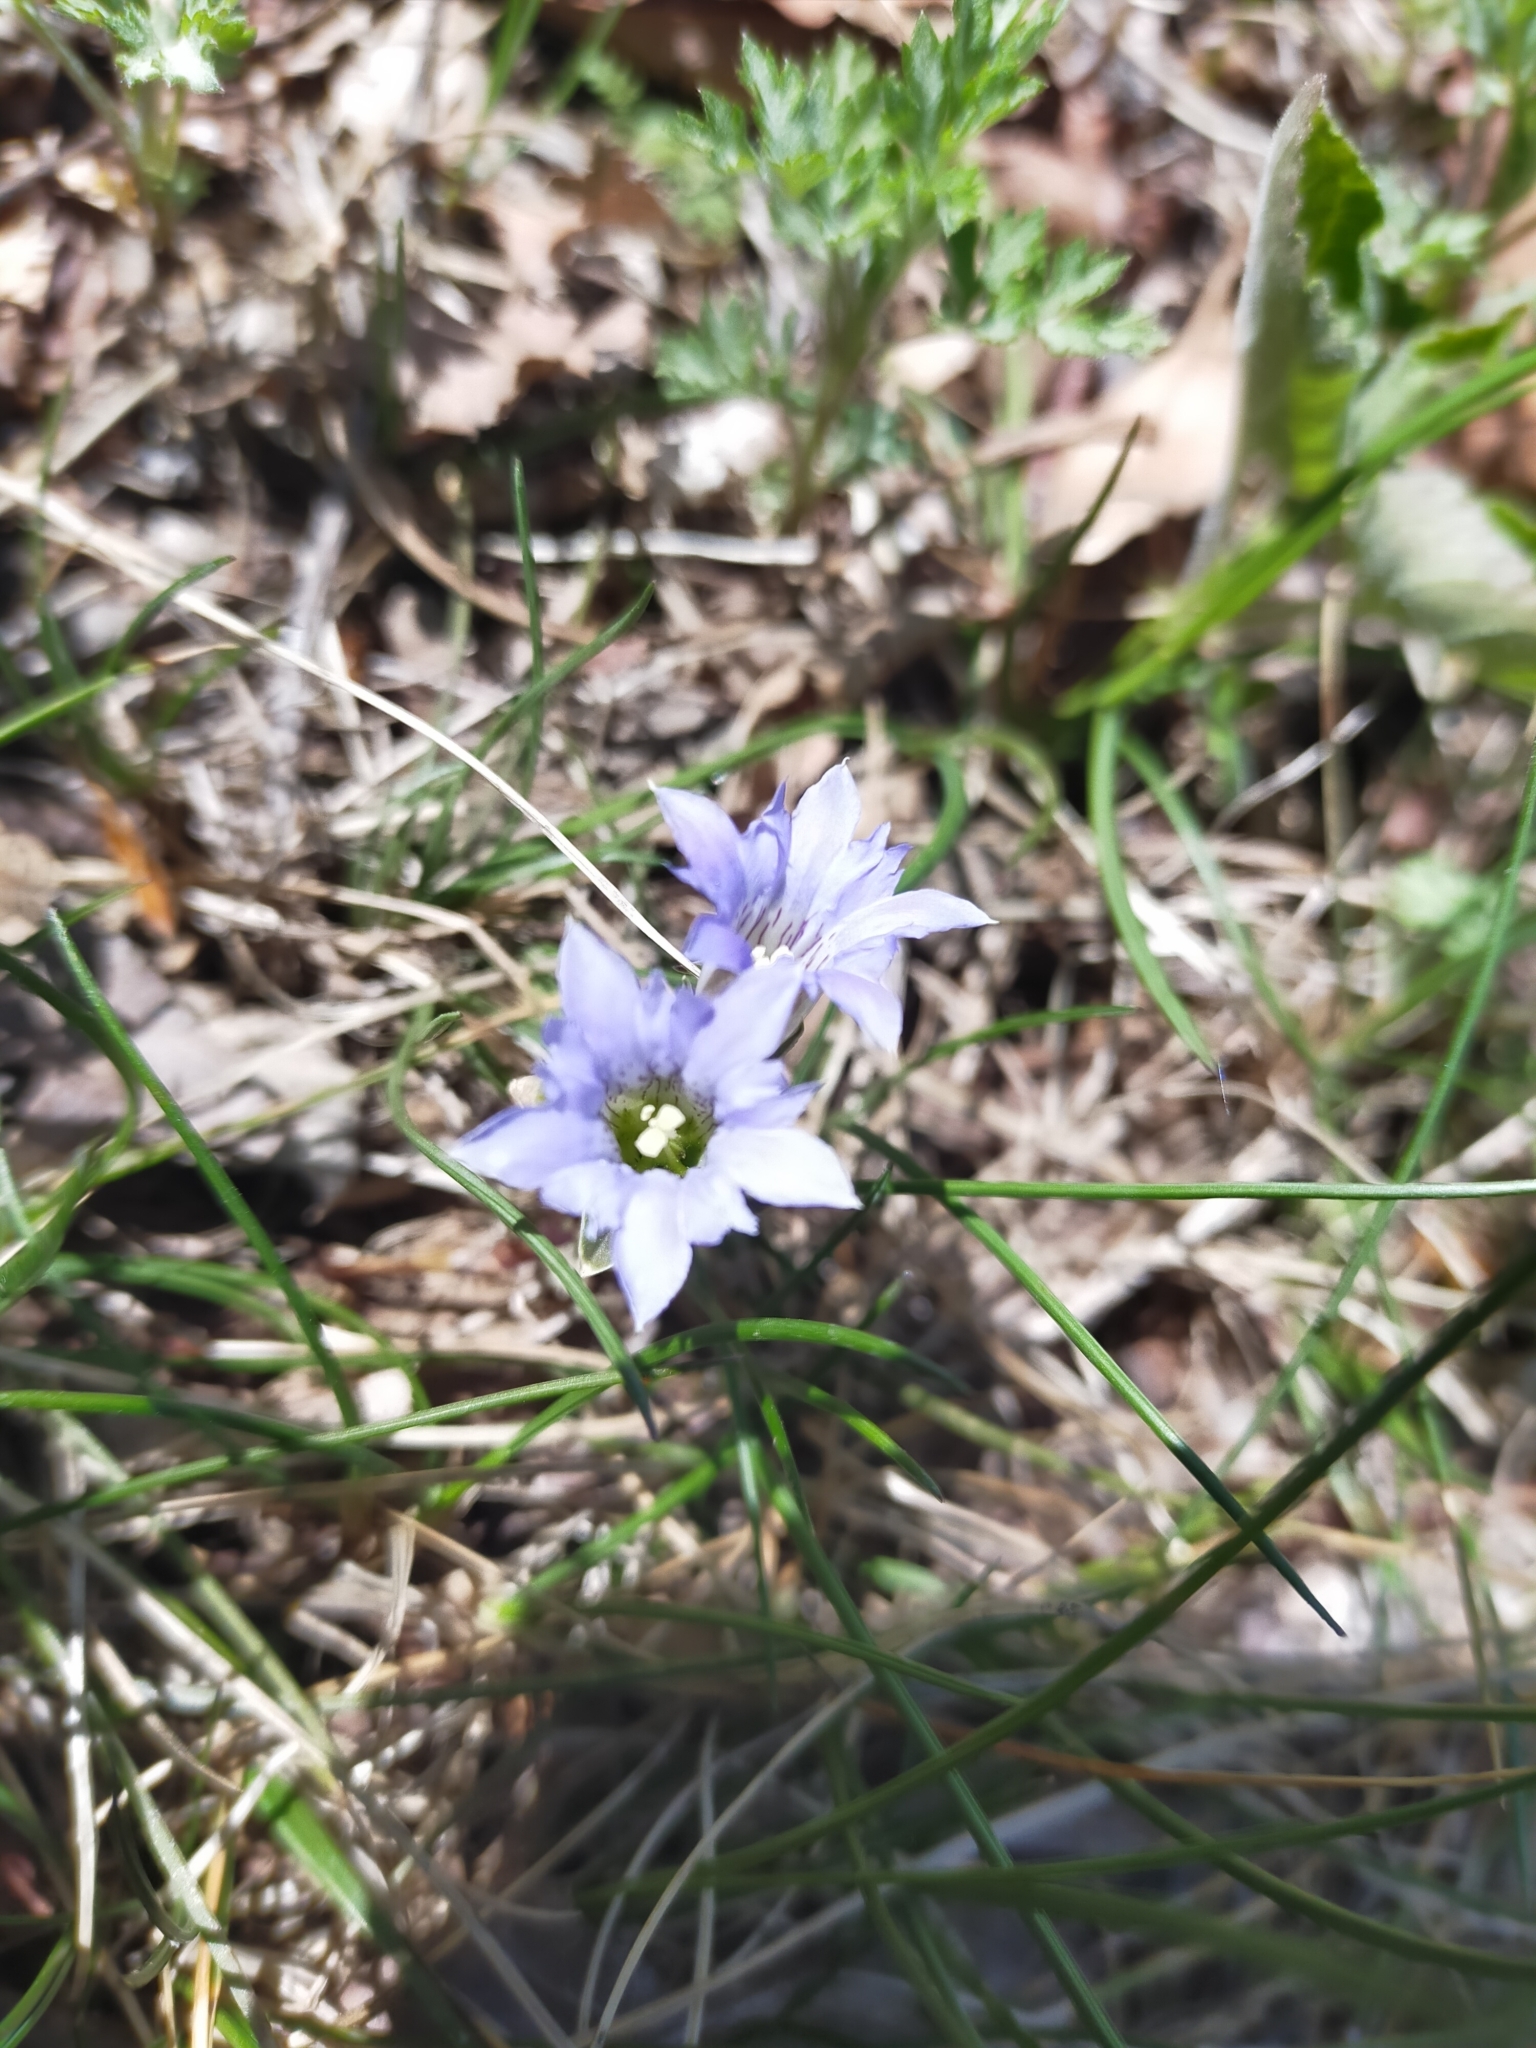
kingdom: Plantae
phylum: Tracheophyta
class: Magnoliopsida
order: Gentianales
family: Gentianaceae
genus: Gentiana
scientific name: Gentiana zollingeri
